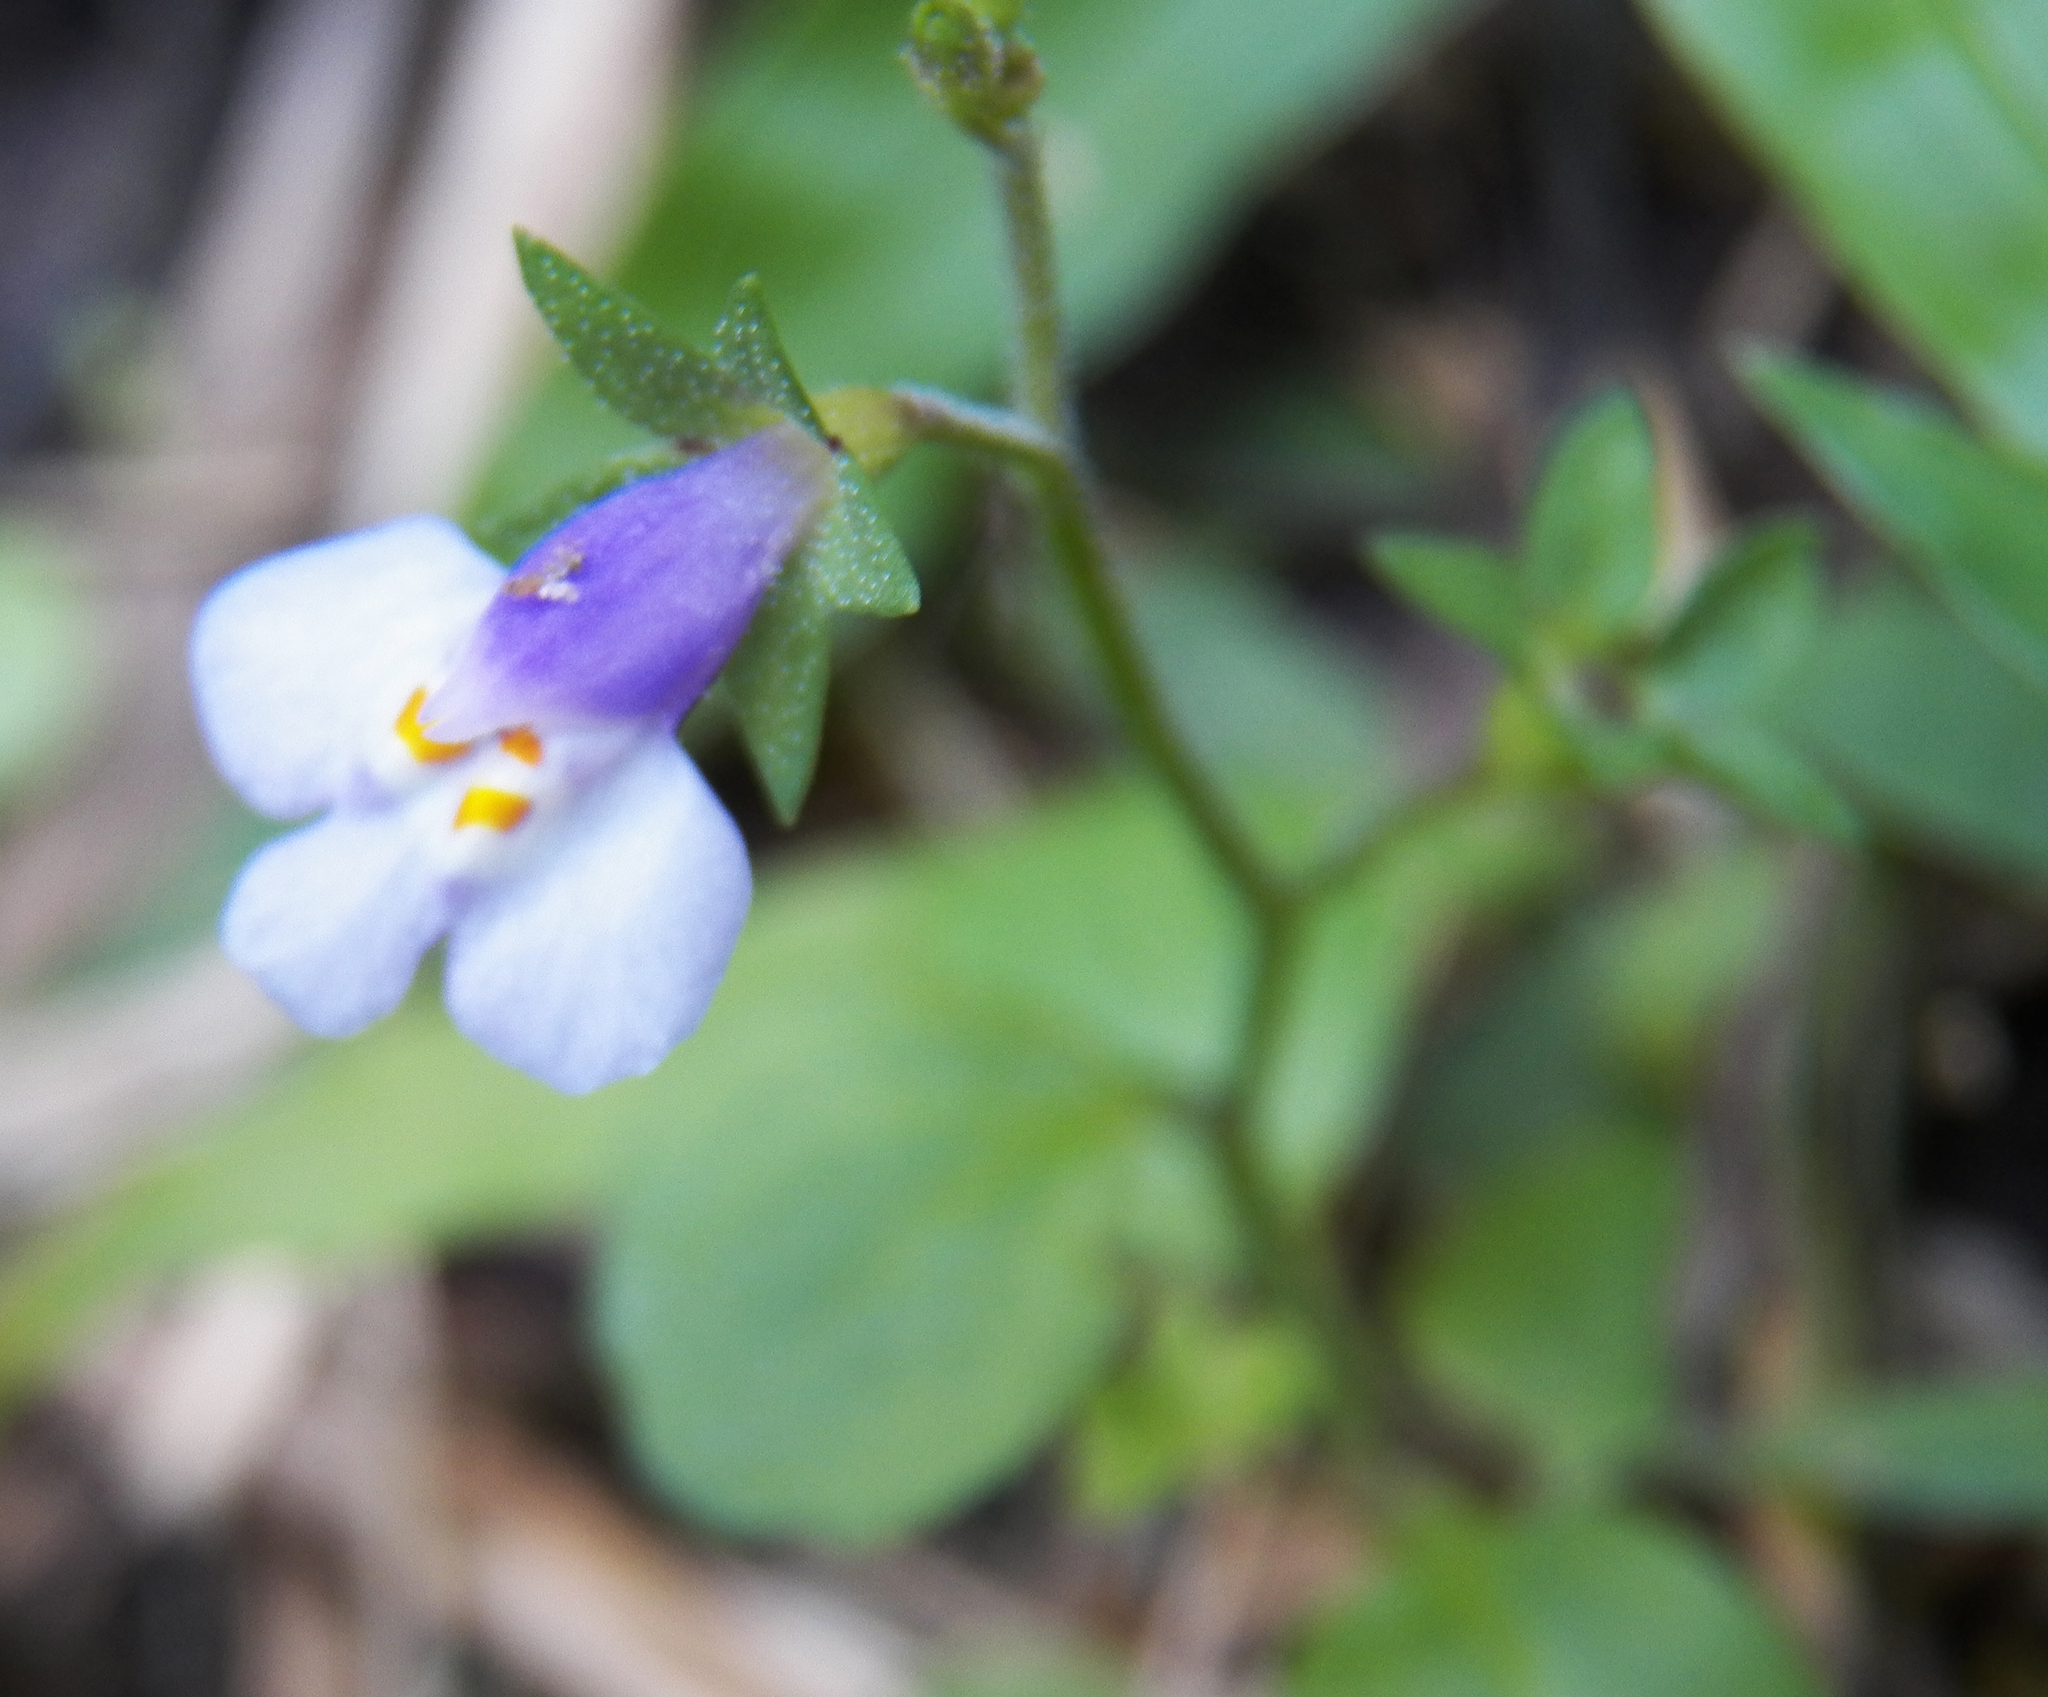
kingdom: Plantae
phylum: Tracheophyta
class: Magnoliopsida
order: Lamiales
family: Mazaceae
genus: Mazus
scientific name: Mazus pumilus
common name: Japanese mazus
